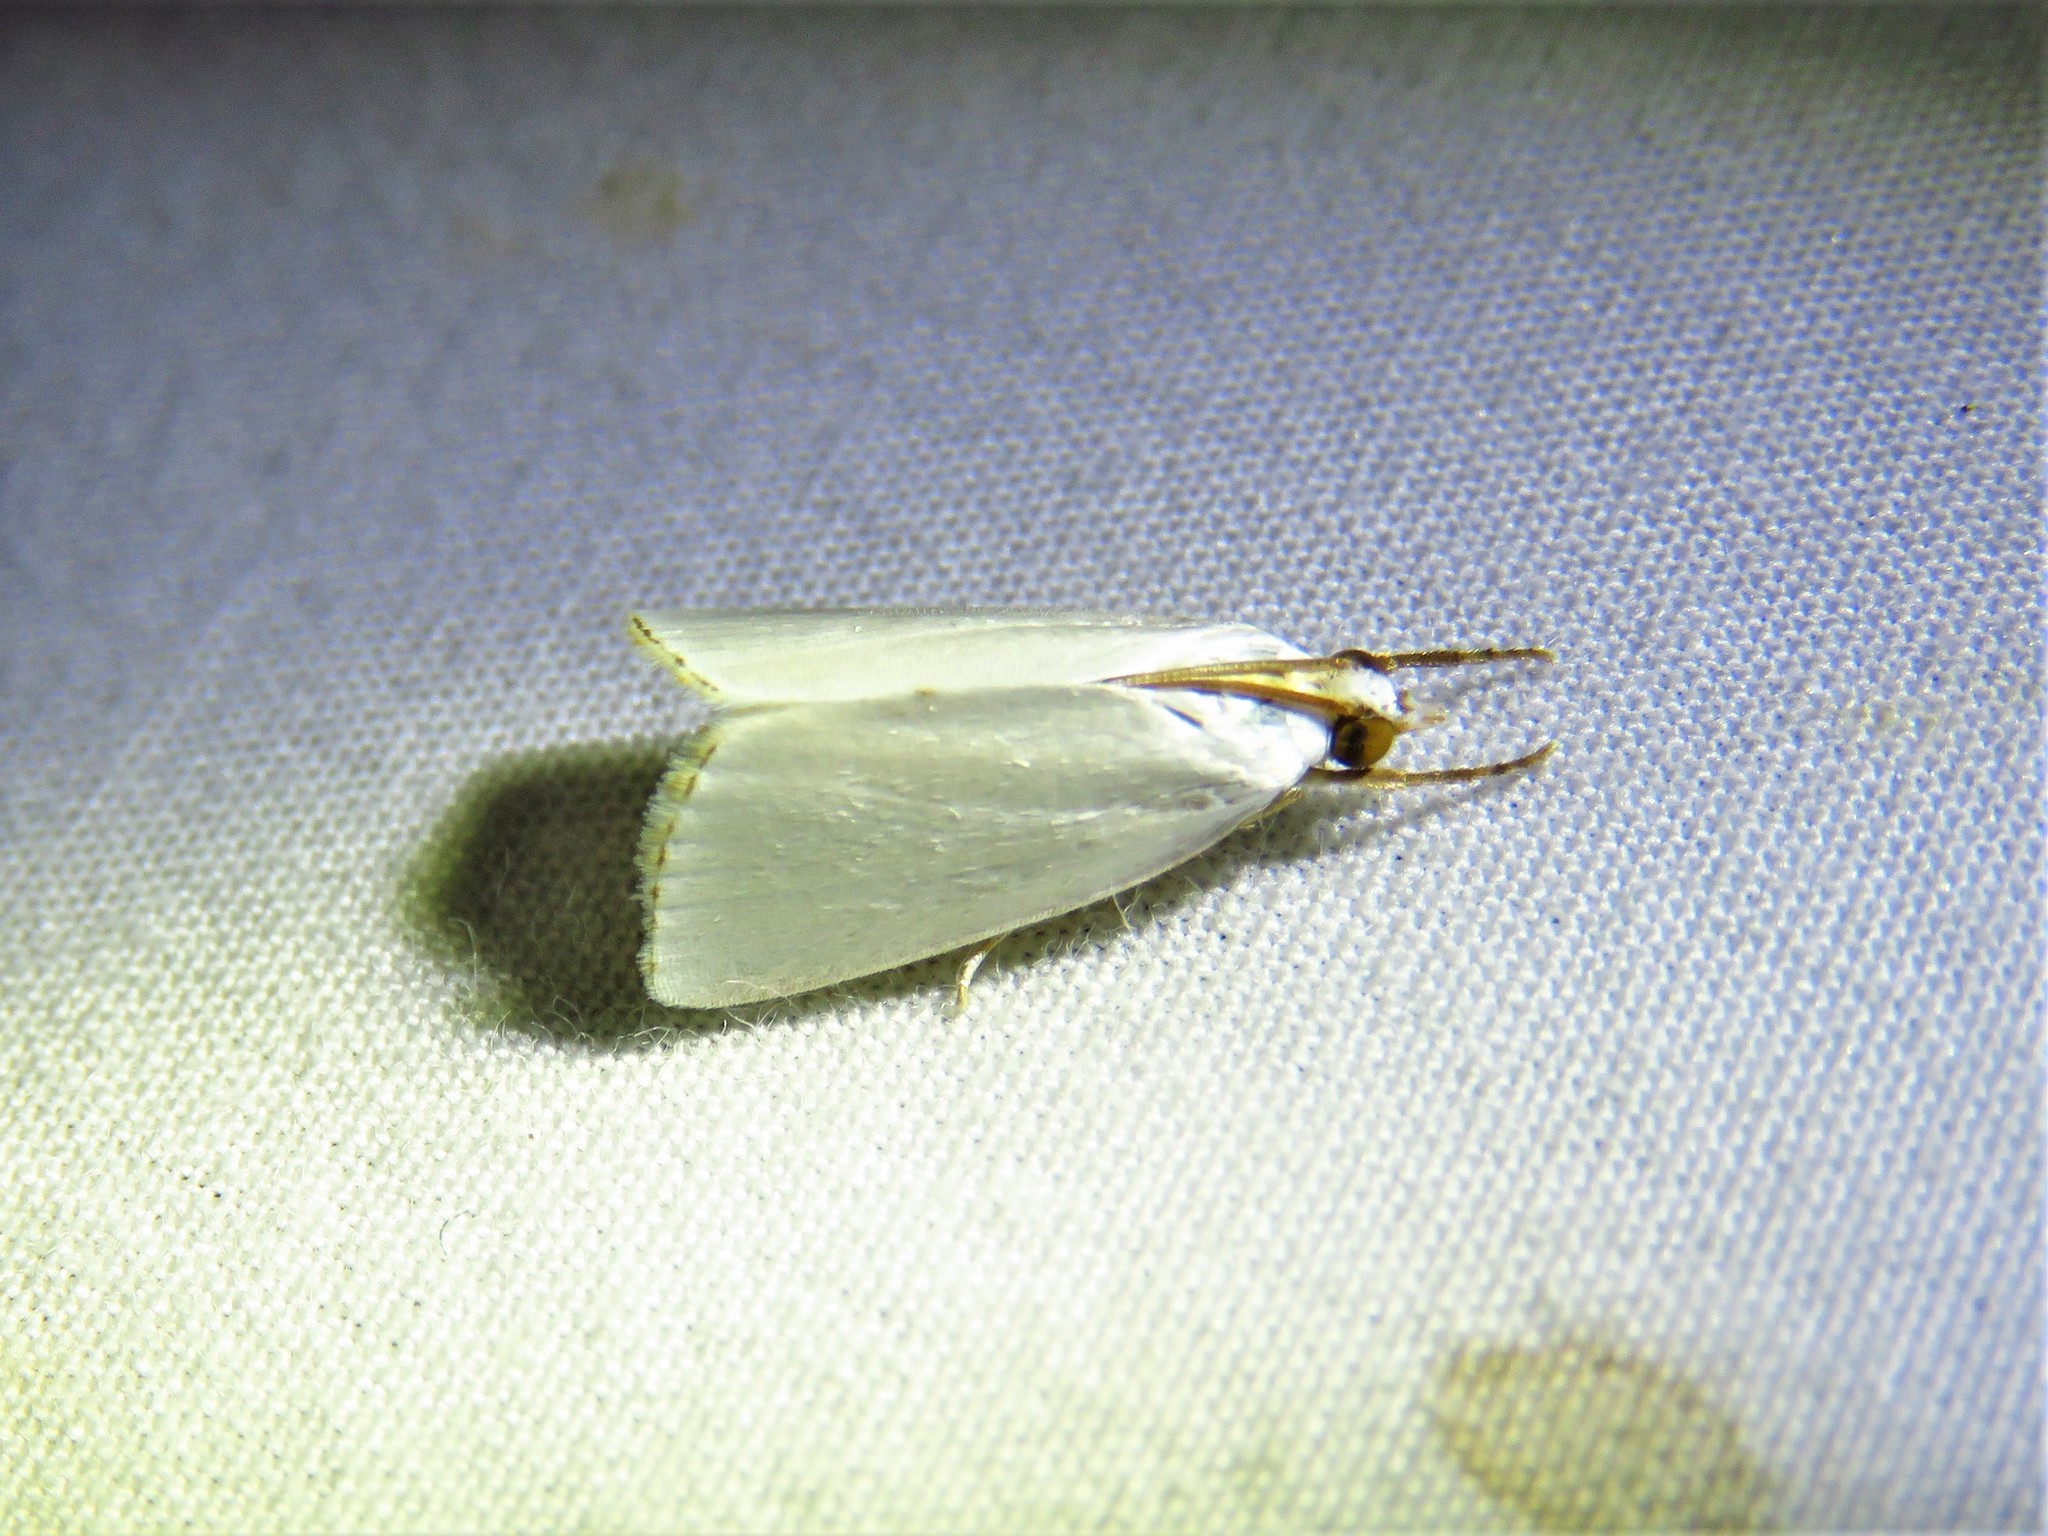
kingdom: Animalia
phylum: Arthropoda
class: Insecta
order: Lepidoptera
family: Crambidae
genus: Argyria
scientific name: Argyria nivalis
